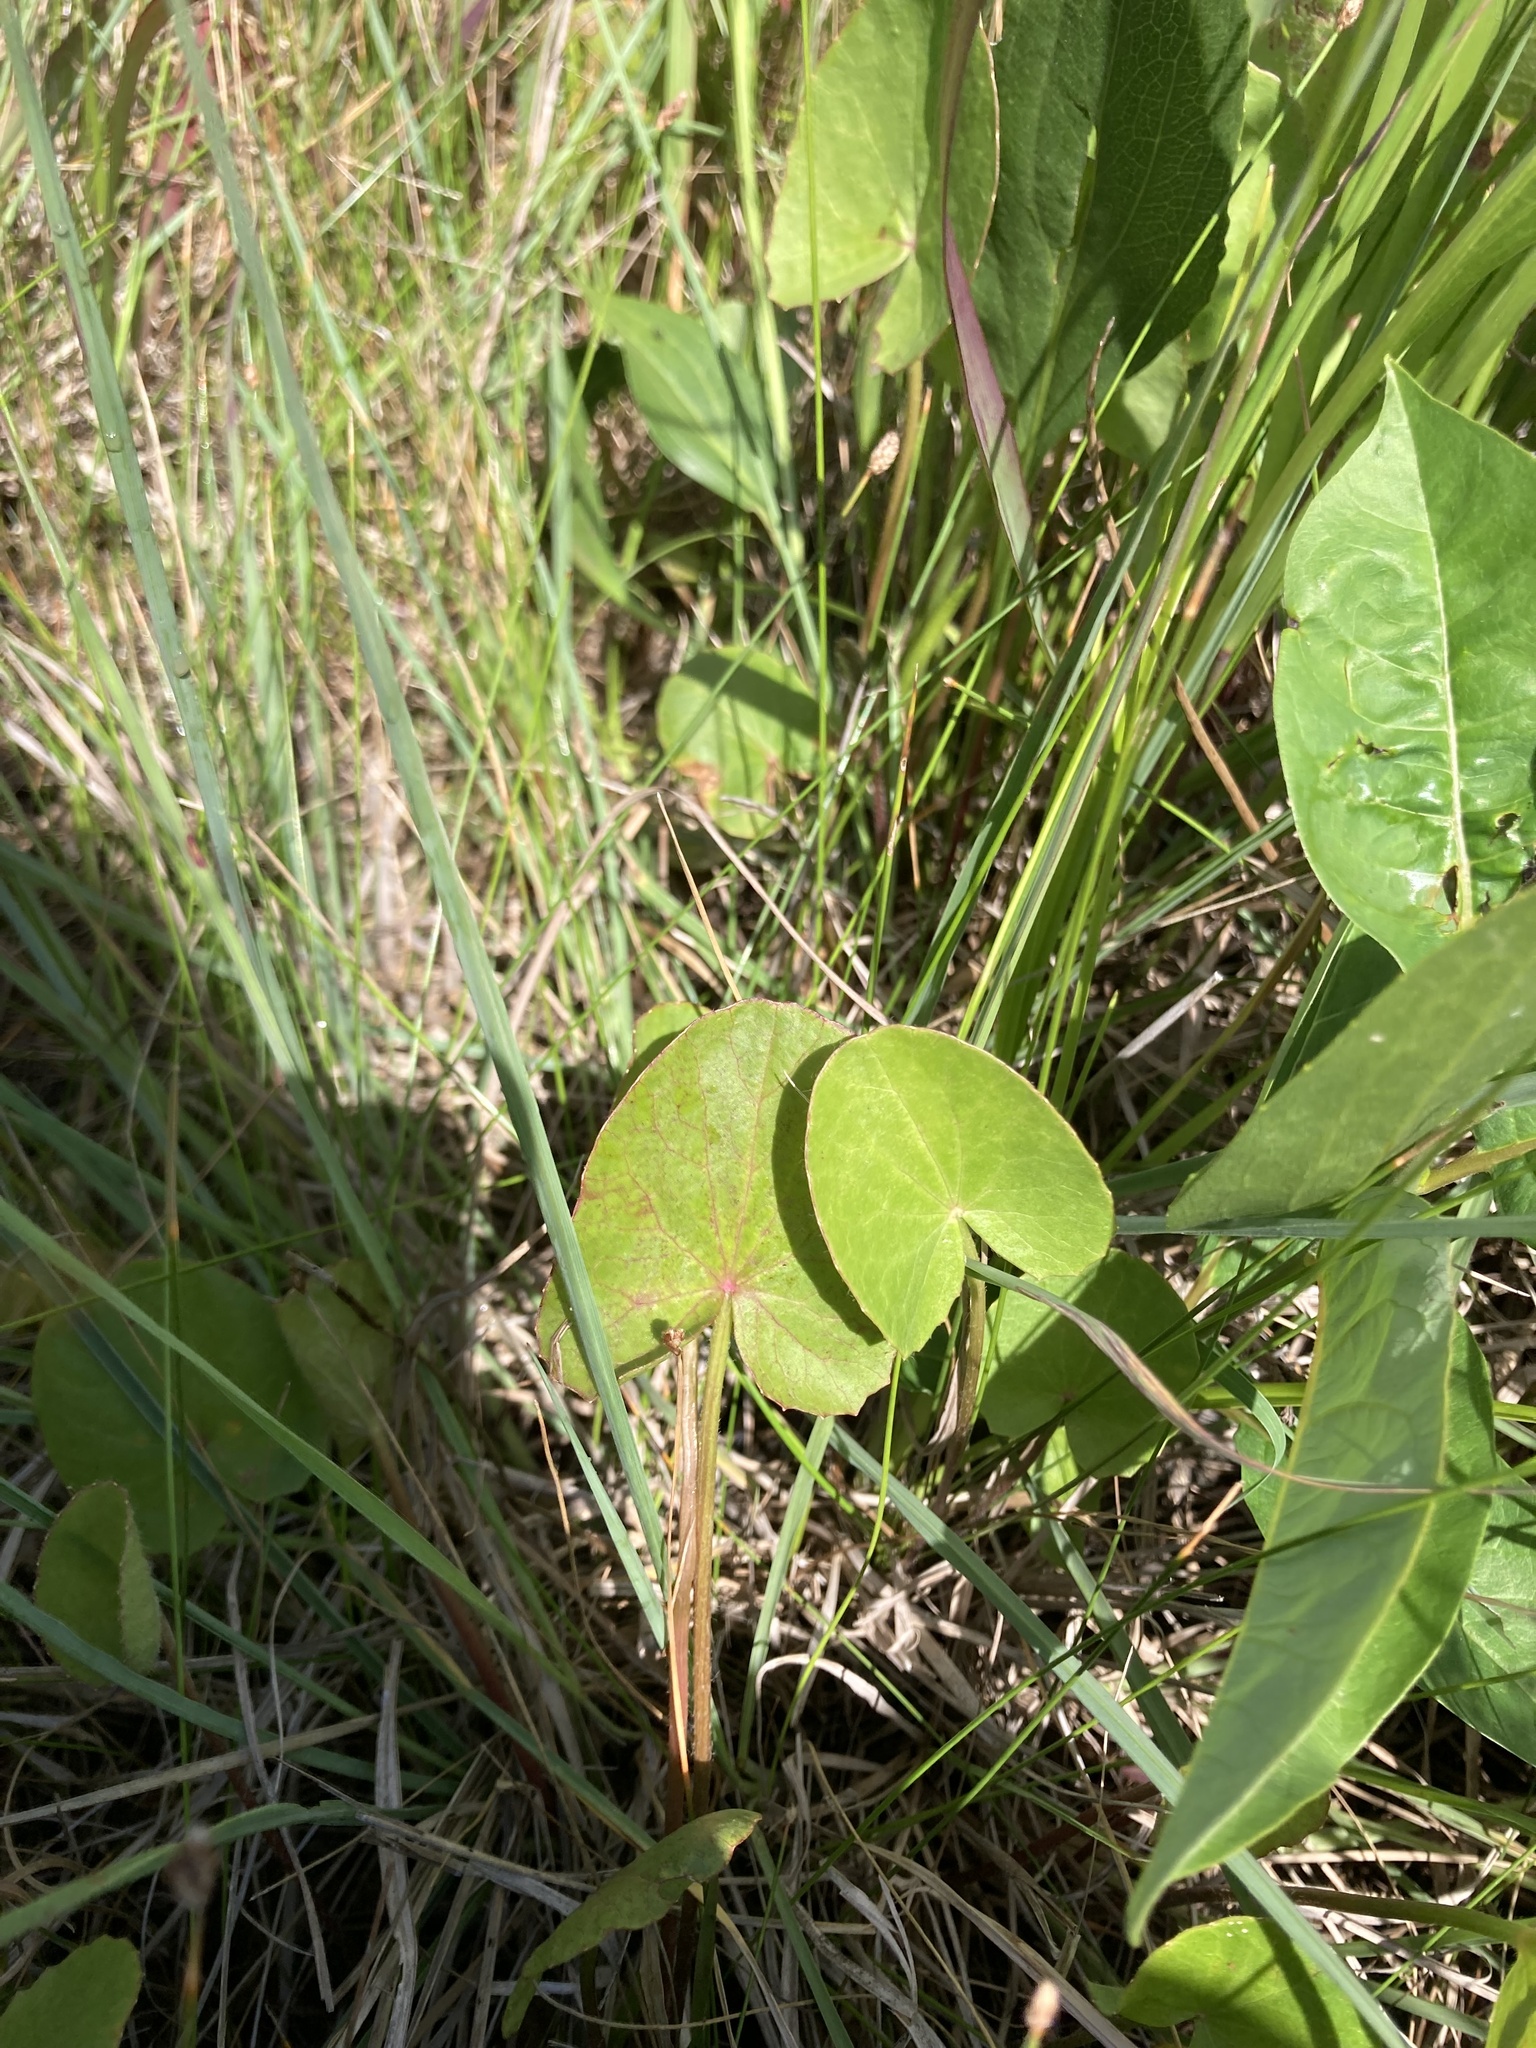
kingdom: Plantae
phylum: Tracheophyta
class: Magnoliopsida
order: Apiales
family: Apiaceae
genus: Centella
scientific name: Centella erecta
